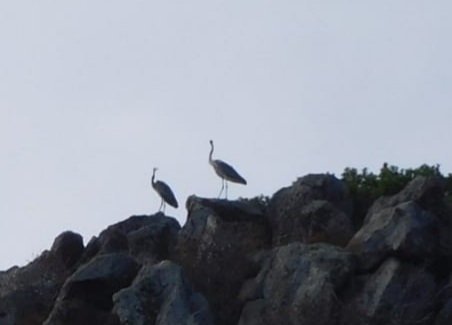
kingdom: Animalia
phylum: Chordata
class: Aves
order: Pelecaniformes
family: Ardeidae
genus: Ardea
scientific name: Ardea cinerea
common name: Grey heron
